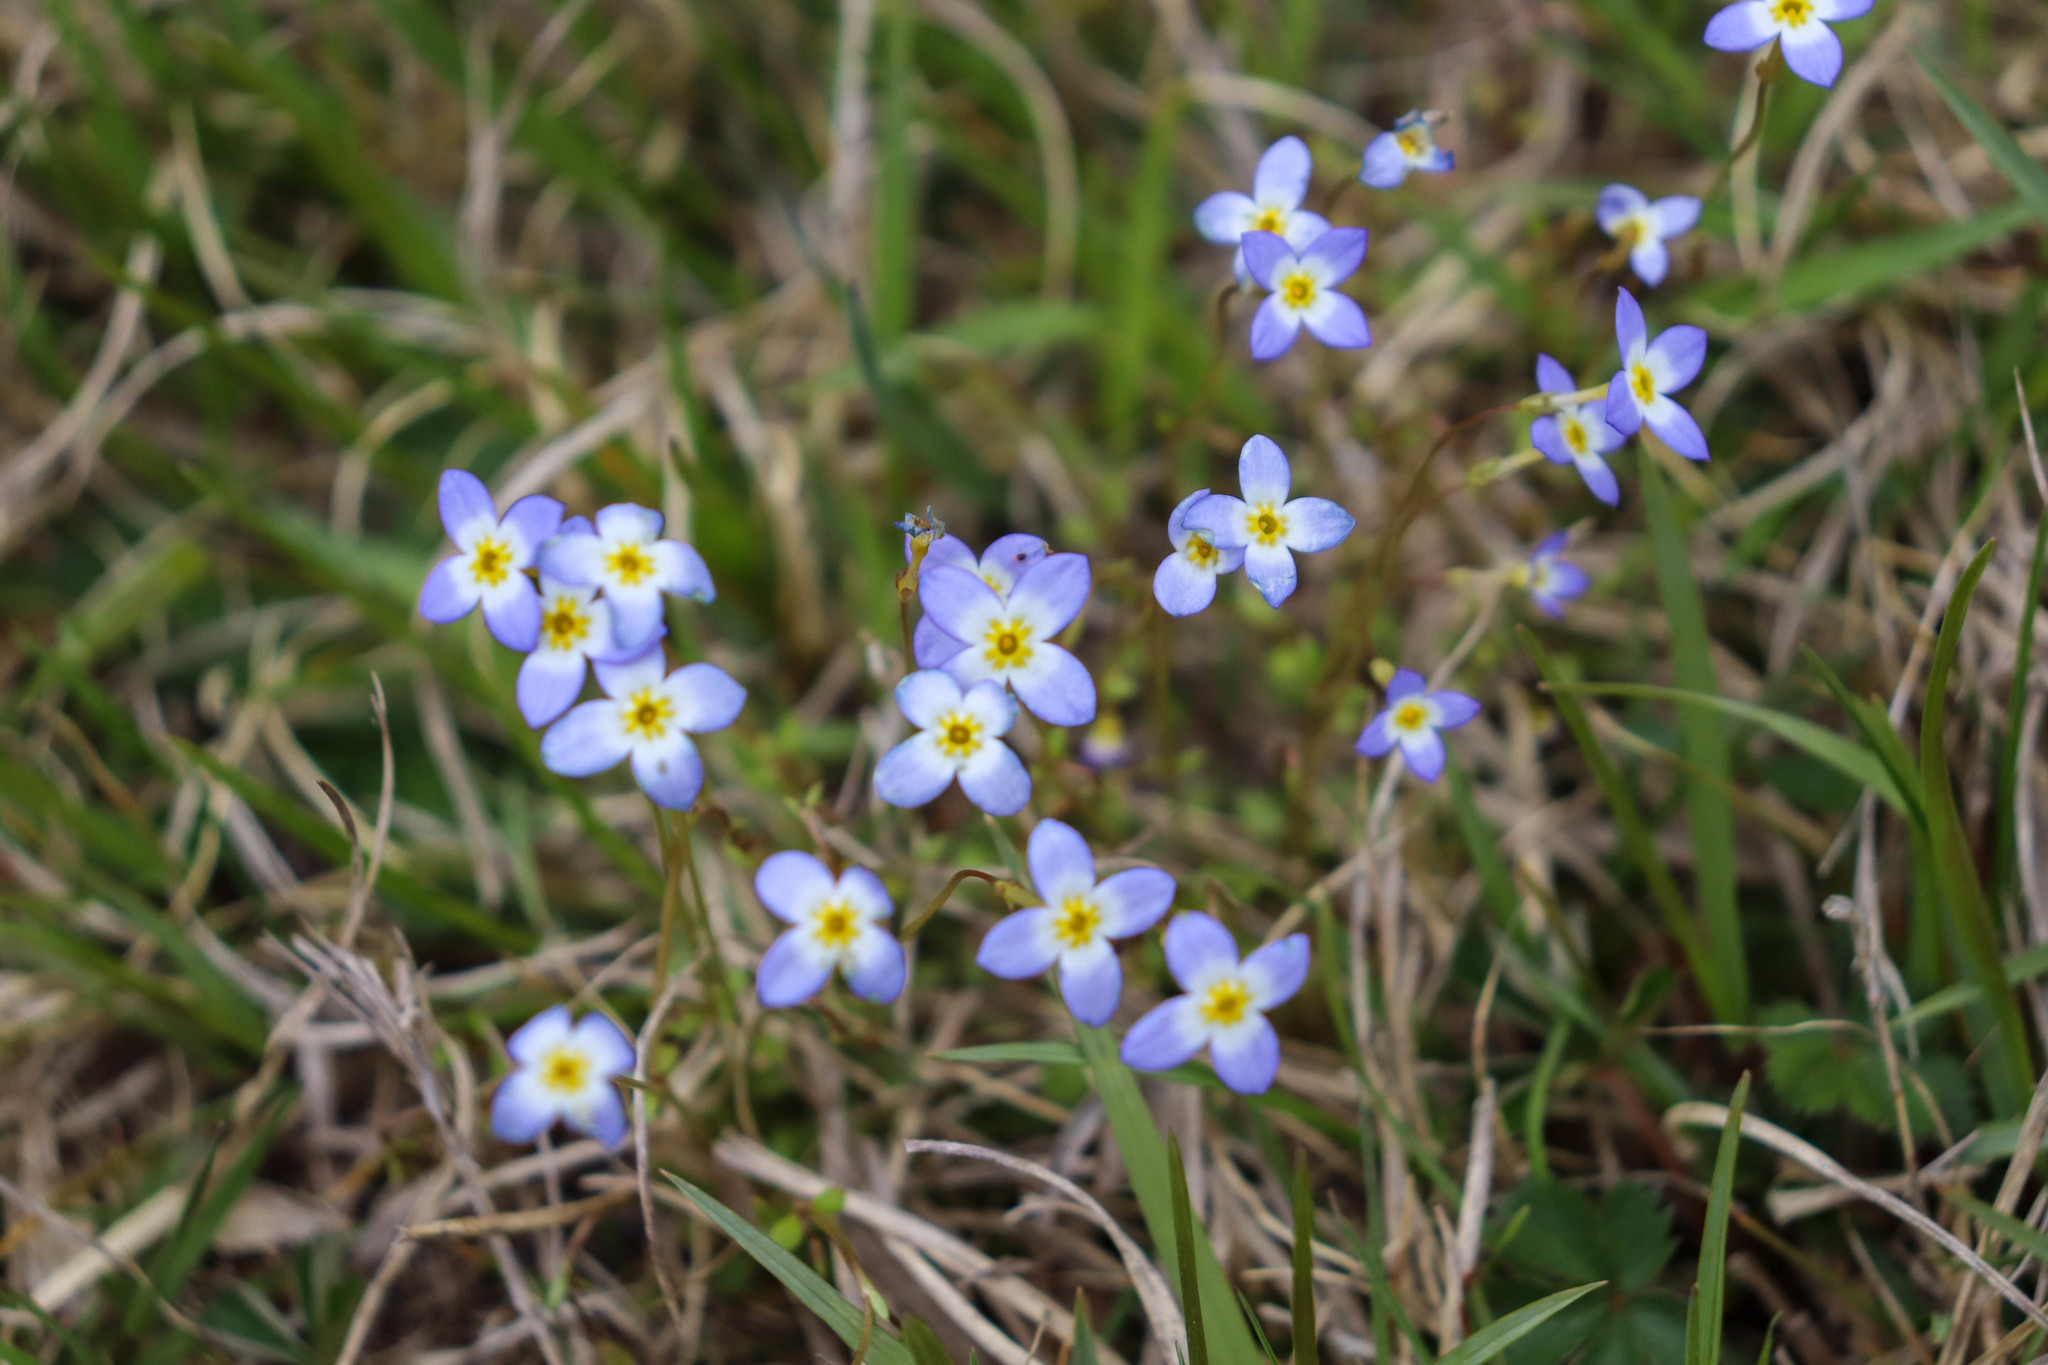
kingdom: Plantae
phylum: Tracheophyta
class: Magnoliopsida
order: Gentianales
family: Rubiaceae
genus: Houstonia
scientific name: Houstonia caerulea
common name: Bluets
